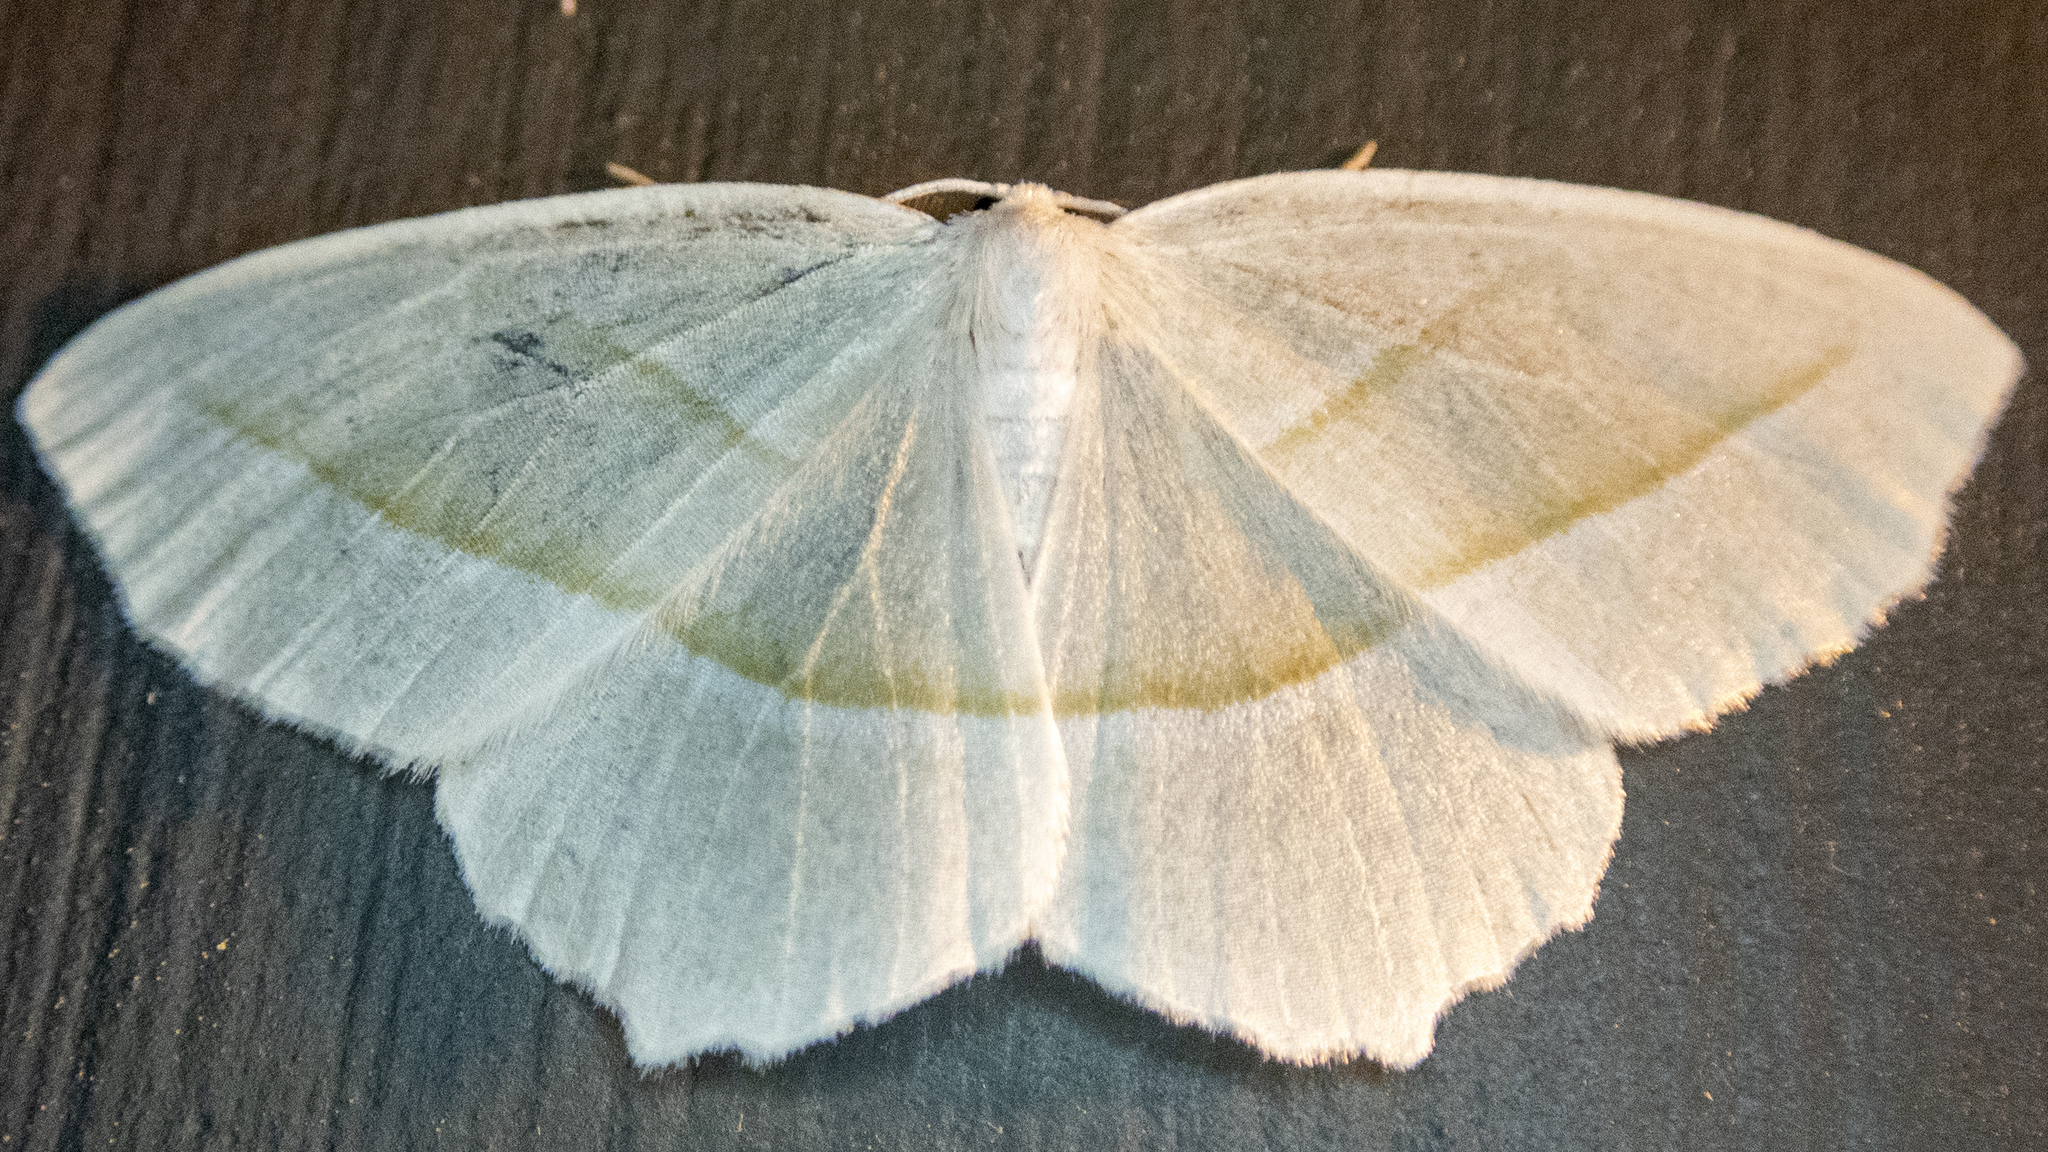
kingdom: Animalia
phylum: Arthropoda
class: Insecta
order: Lepidoptera
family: Geometridae
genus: Campaea
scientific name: Campaea perlata
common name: Fringed looper
